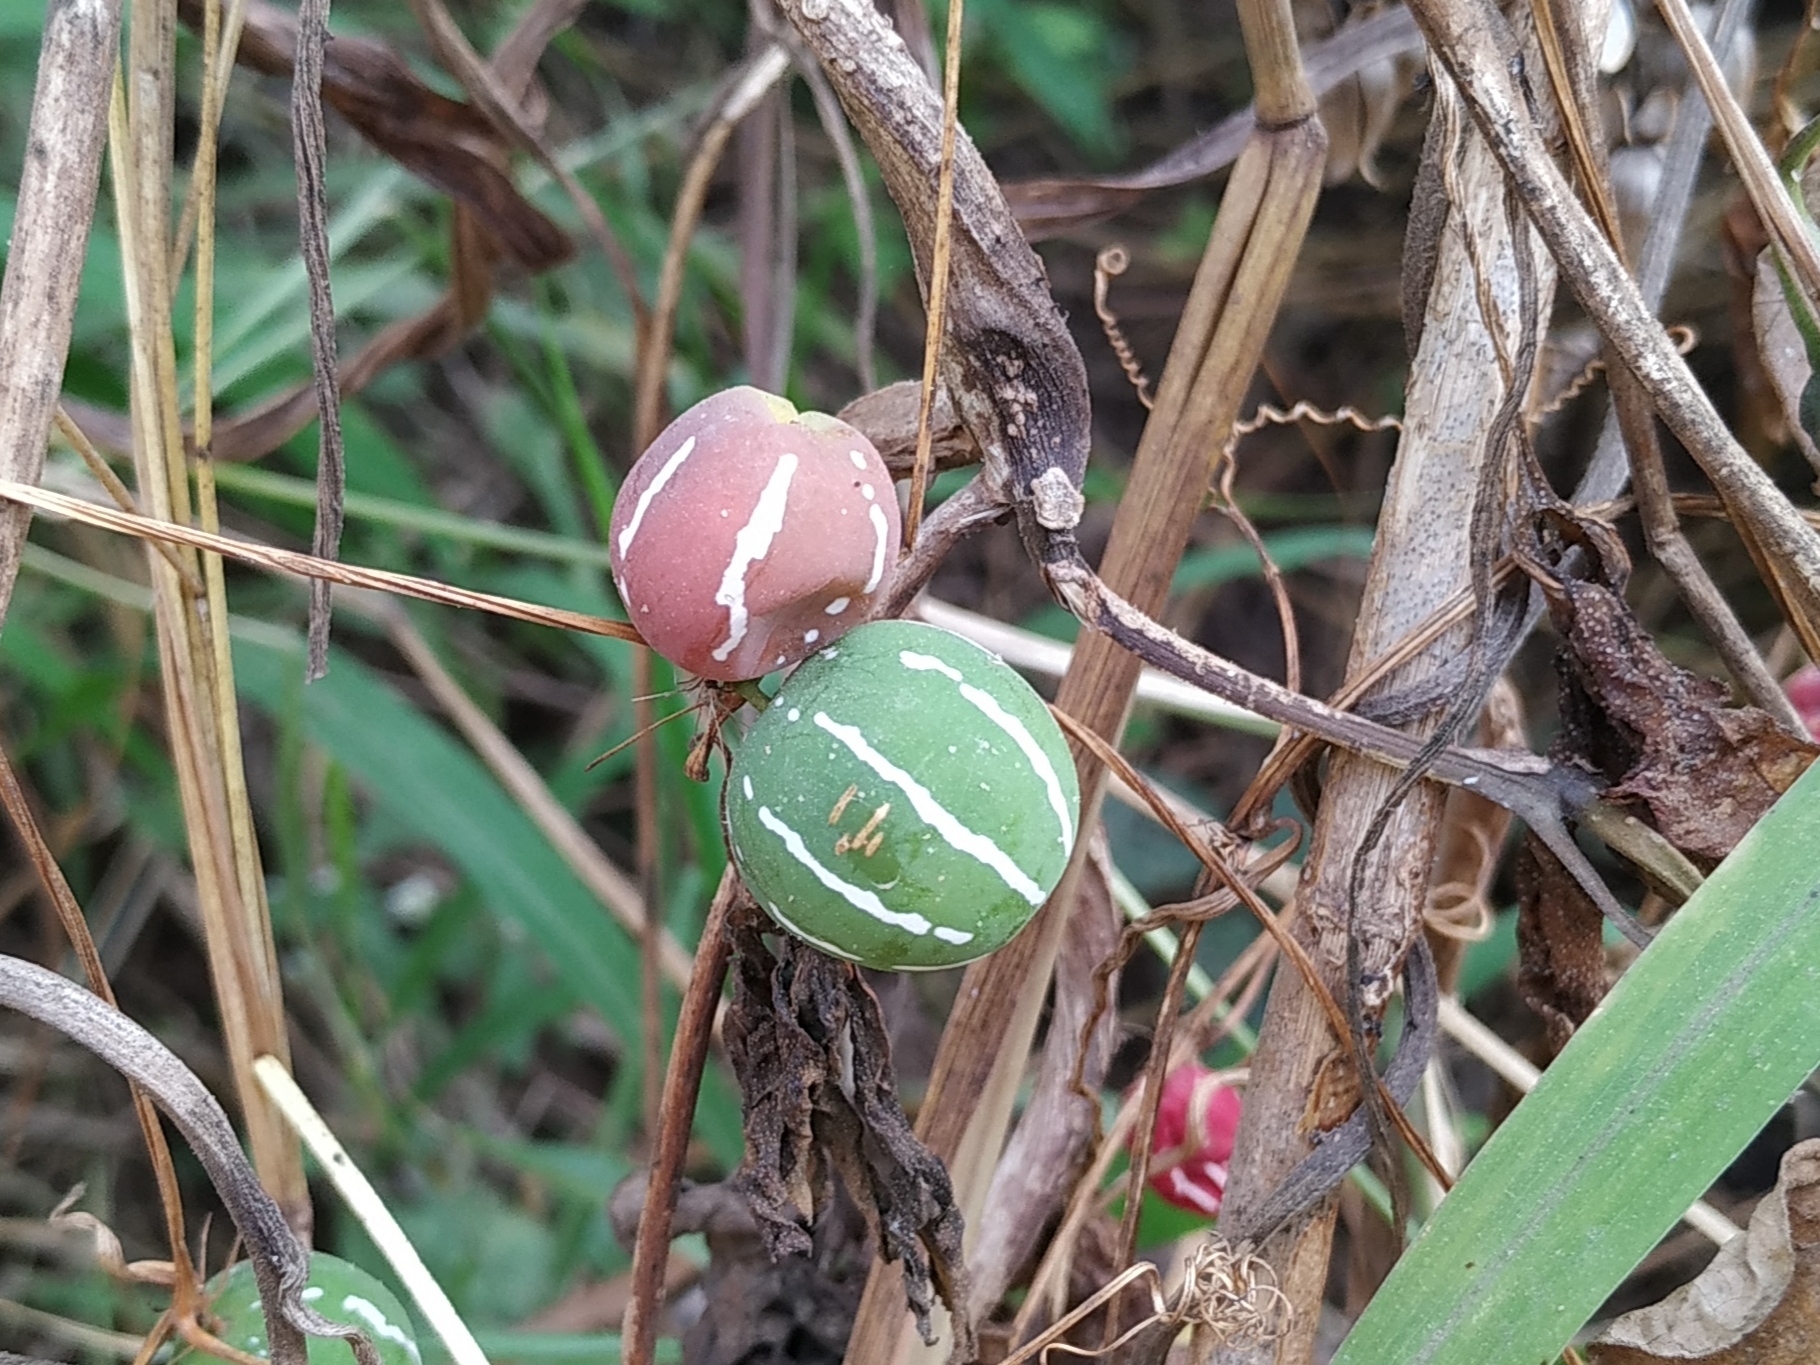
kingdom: Plantae
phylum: Tracheophyta
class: Magnoliopsida
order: Cucurbitales
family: Cucurbitaceae
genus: Diplocyclos
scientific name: Diplocyclos palmatus
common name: Striped-cucumber
